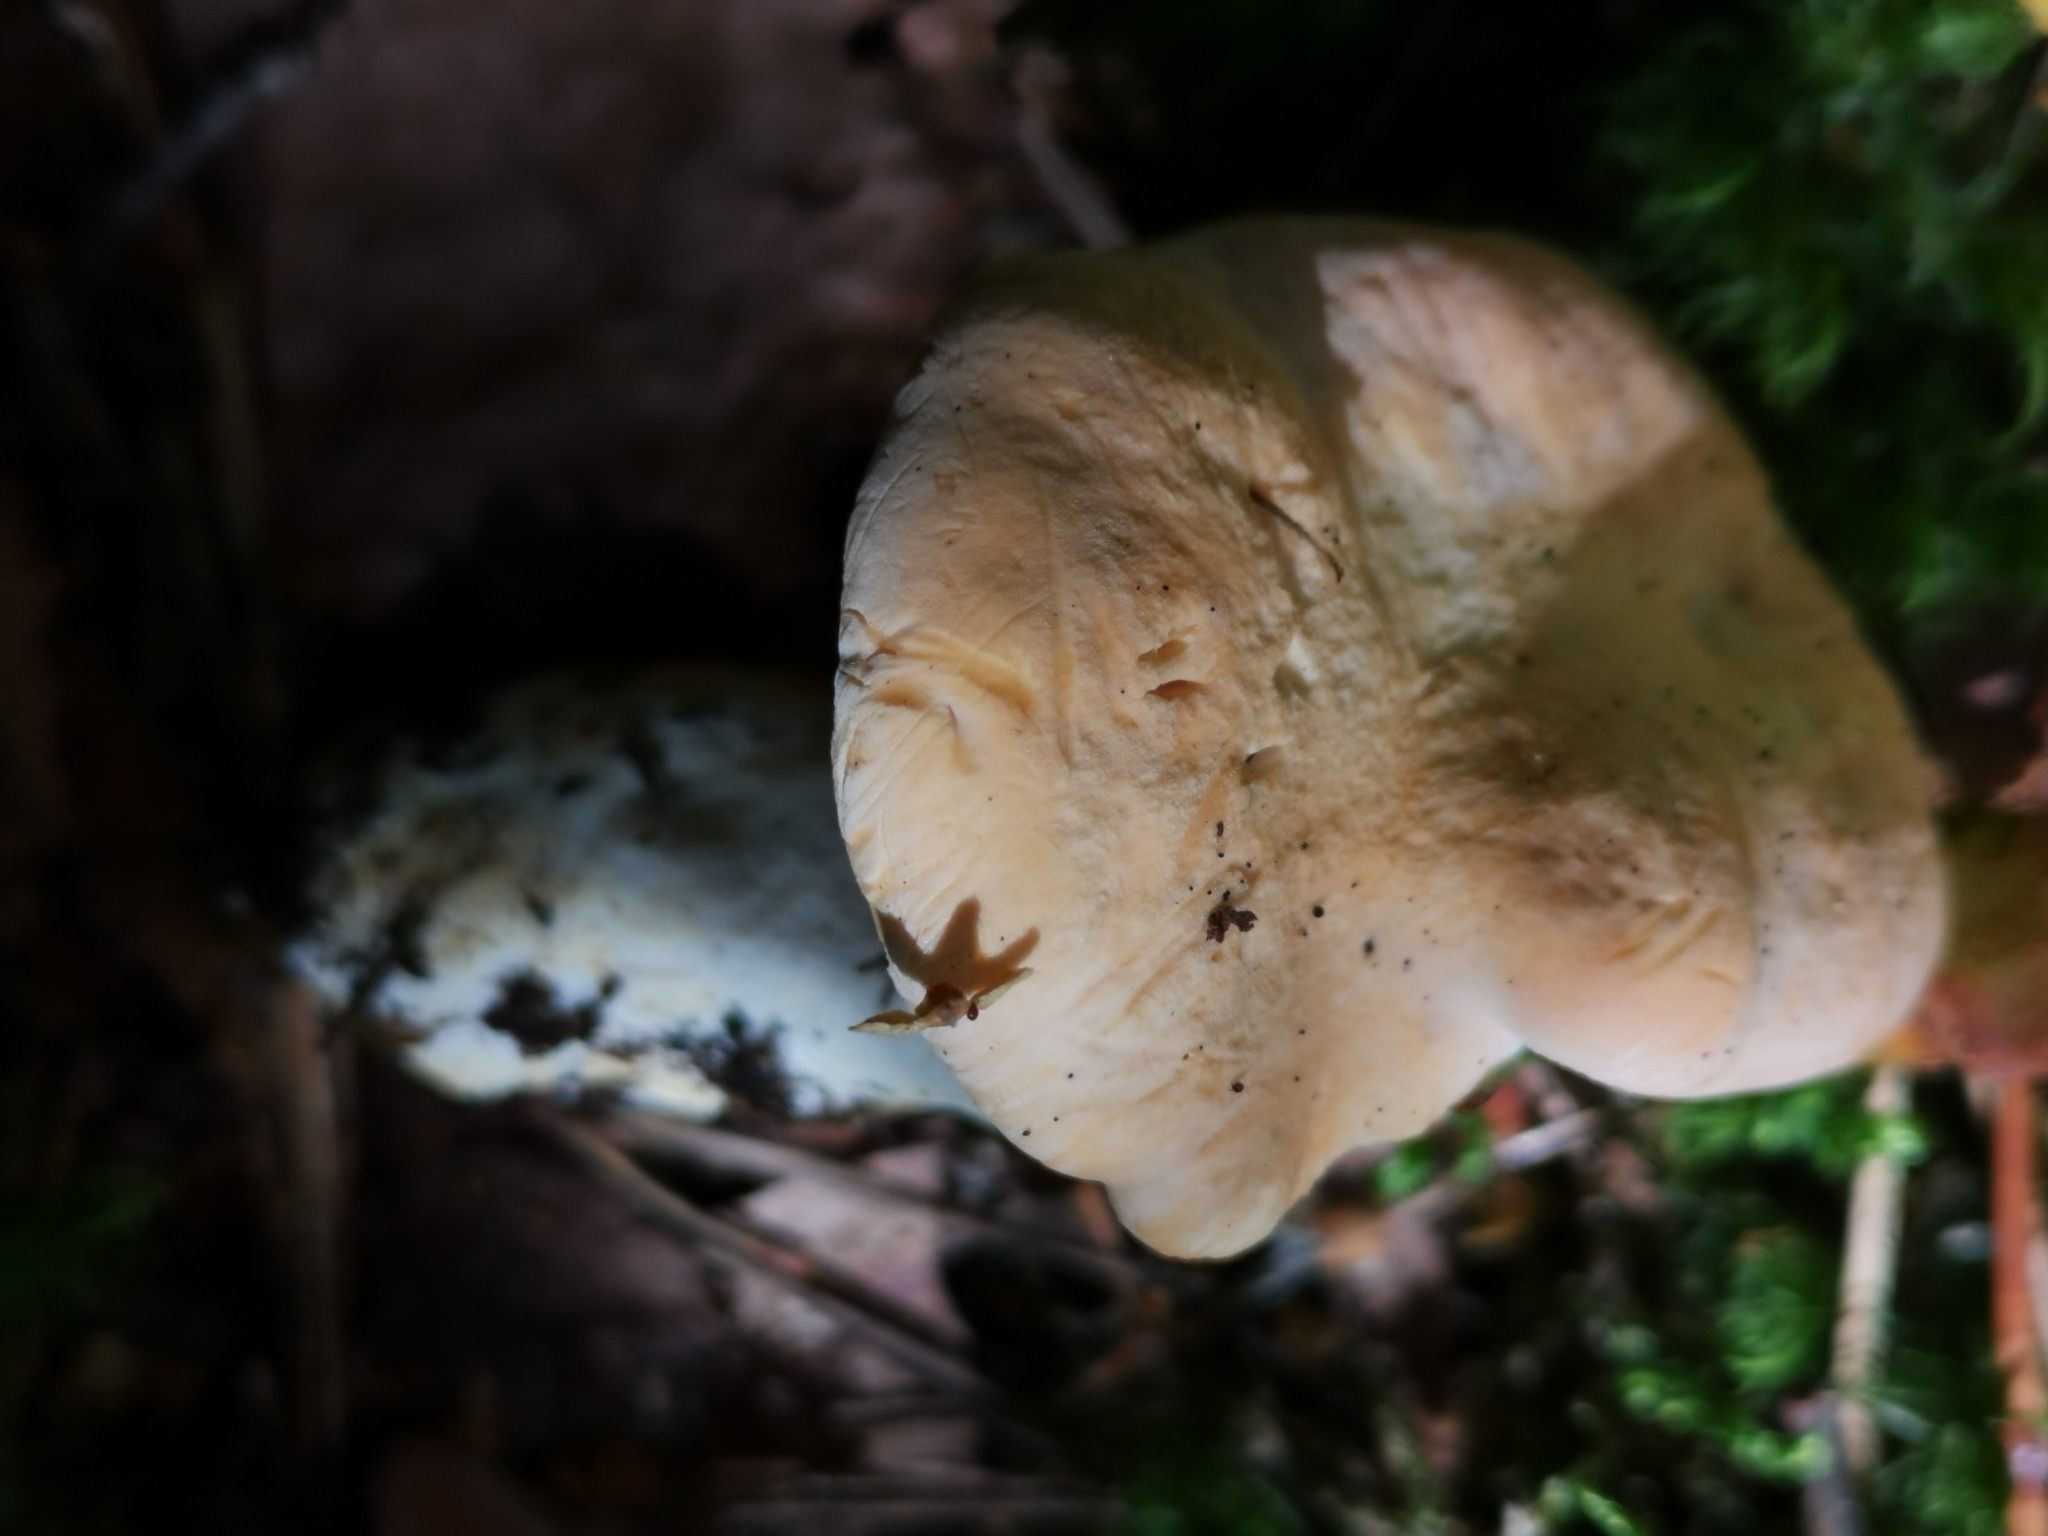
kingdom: Fungi
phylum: Basidiomycota
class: Agaricomycetes
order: Cantharellales
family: Hydnaceae
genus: Hydnum
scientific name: Hydnum repandum
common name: Wood hedgehog
